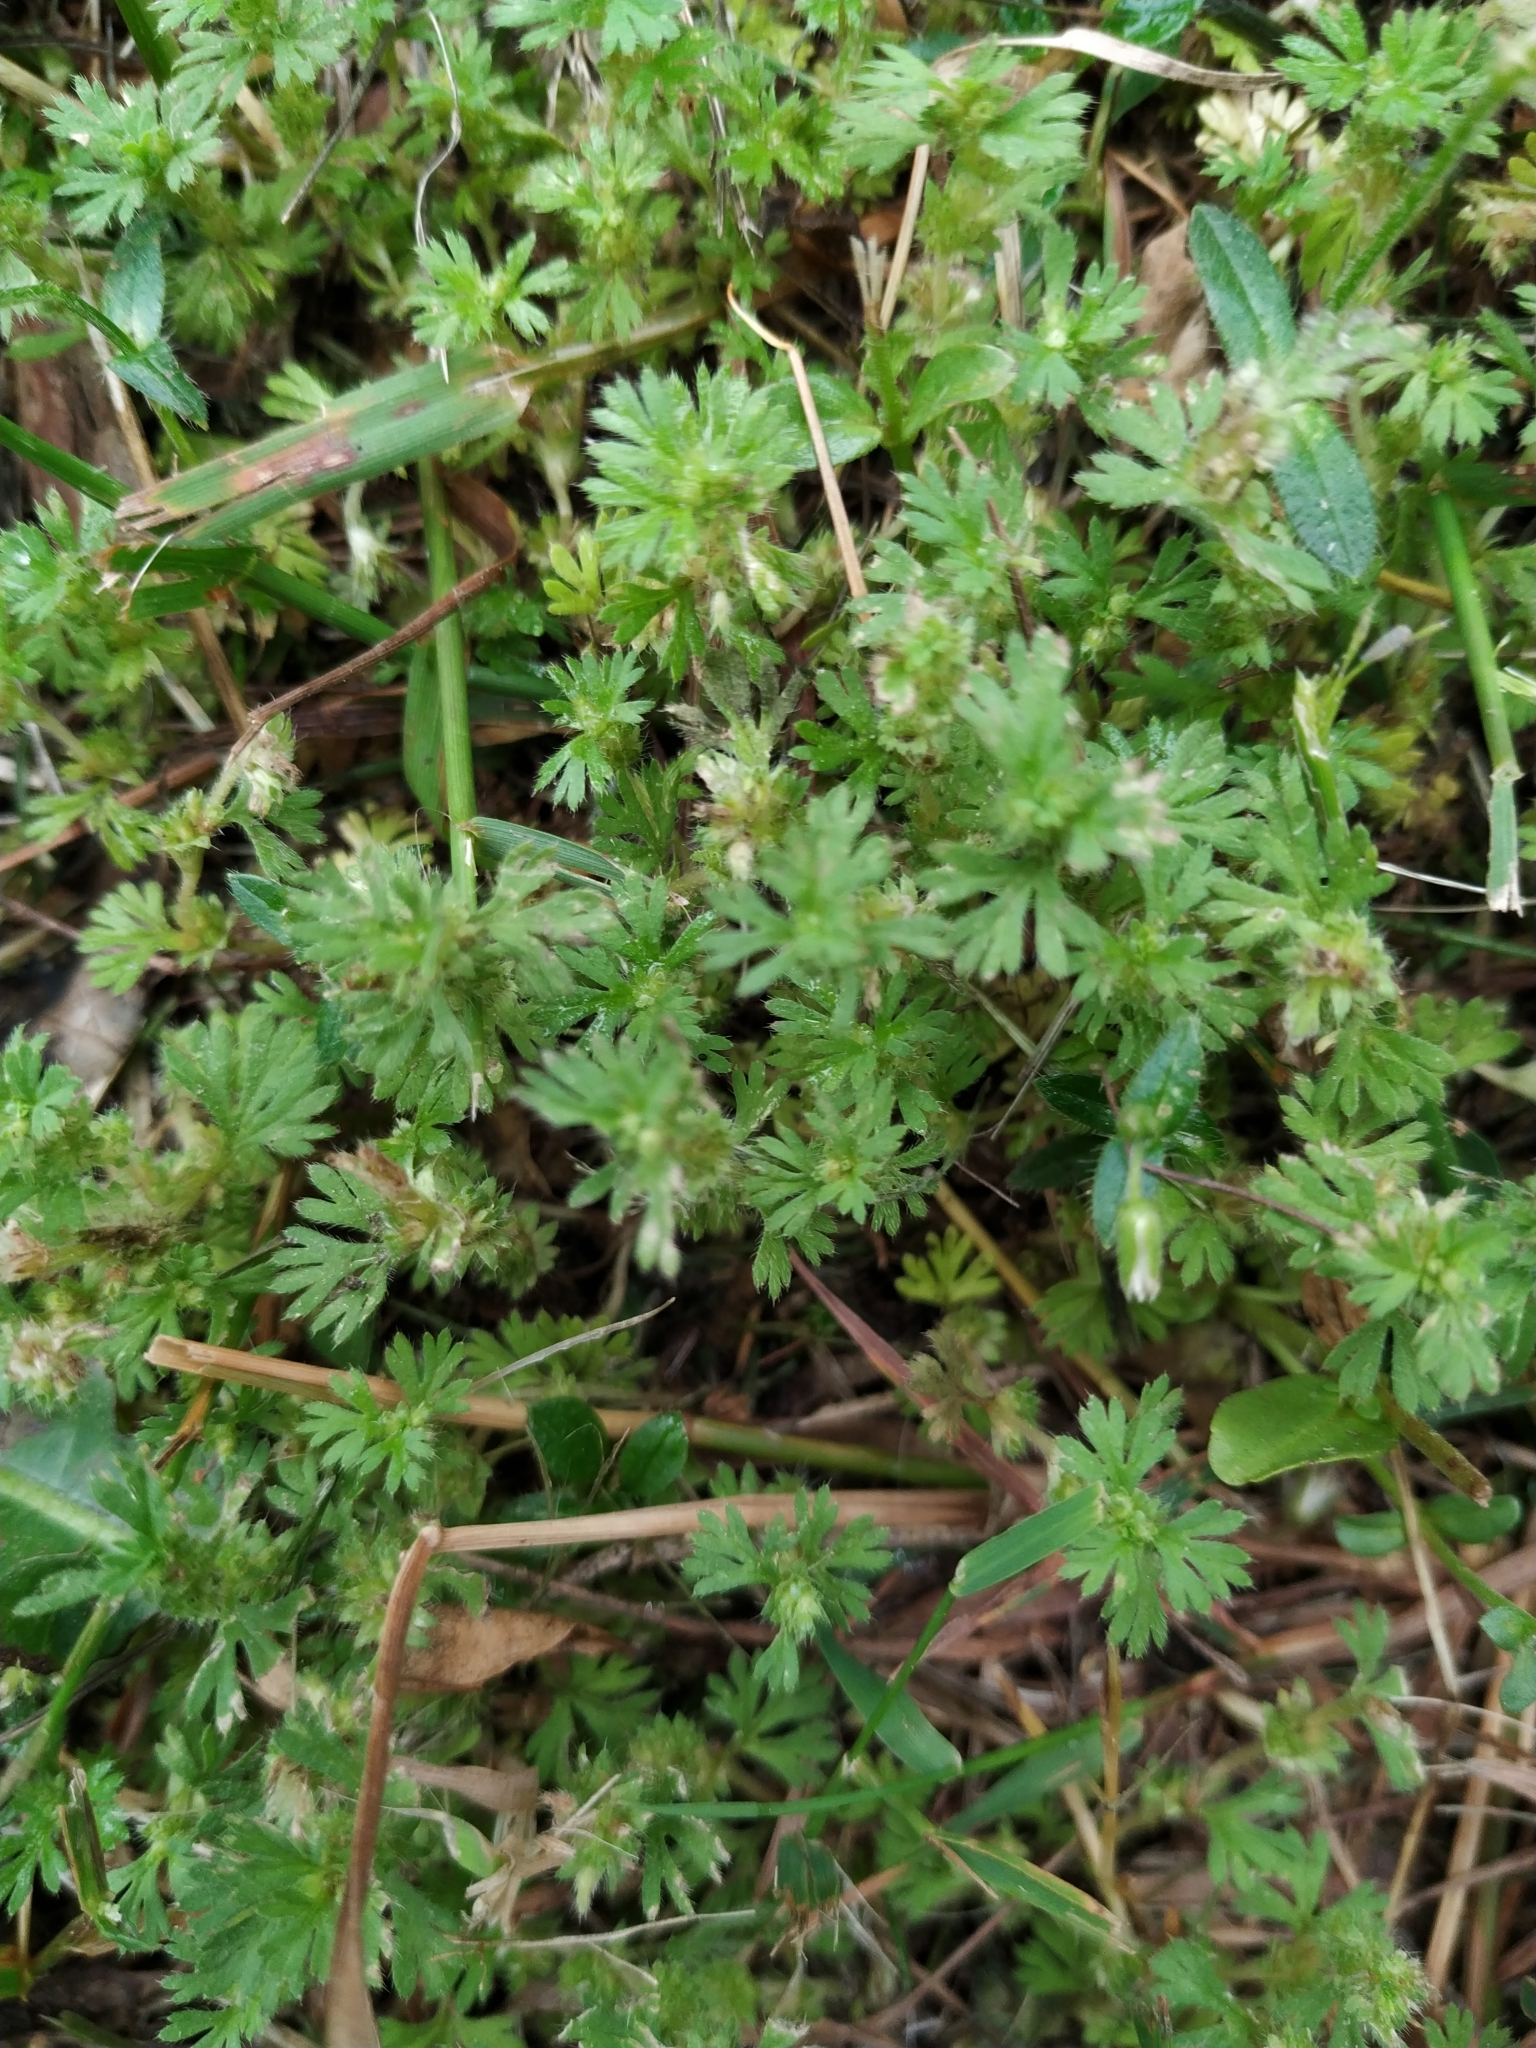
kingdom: Plantae
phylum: Tracheophyta
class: Magnoliopsida
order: Rosales
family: Rosaceae
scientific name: Rosaceae
